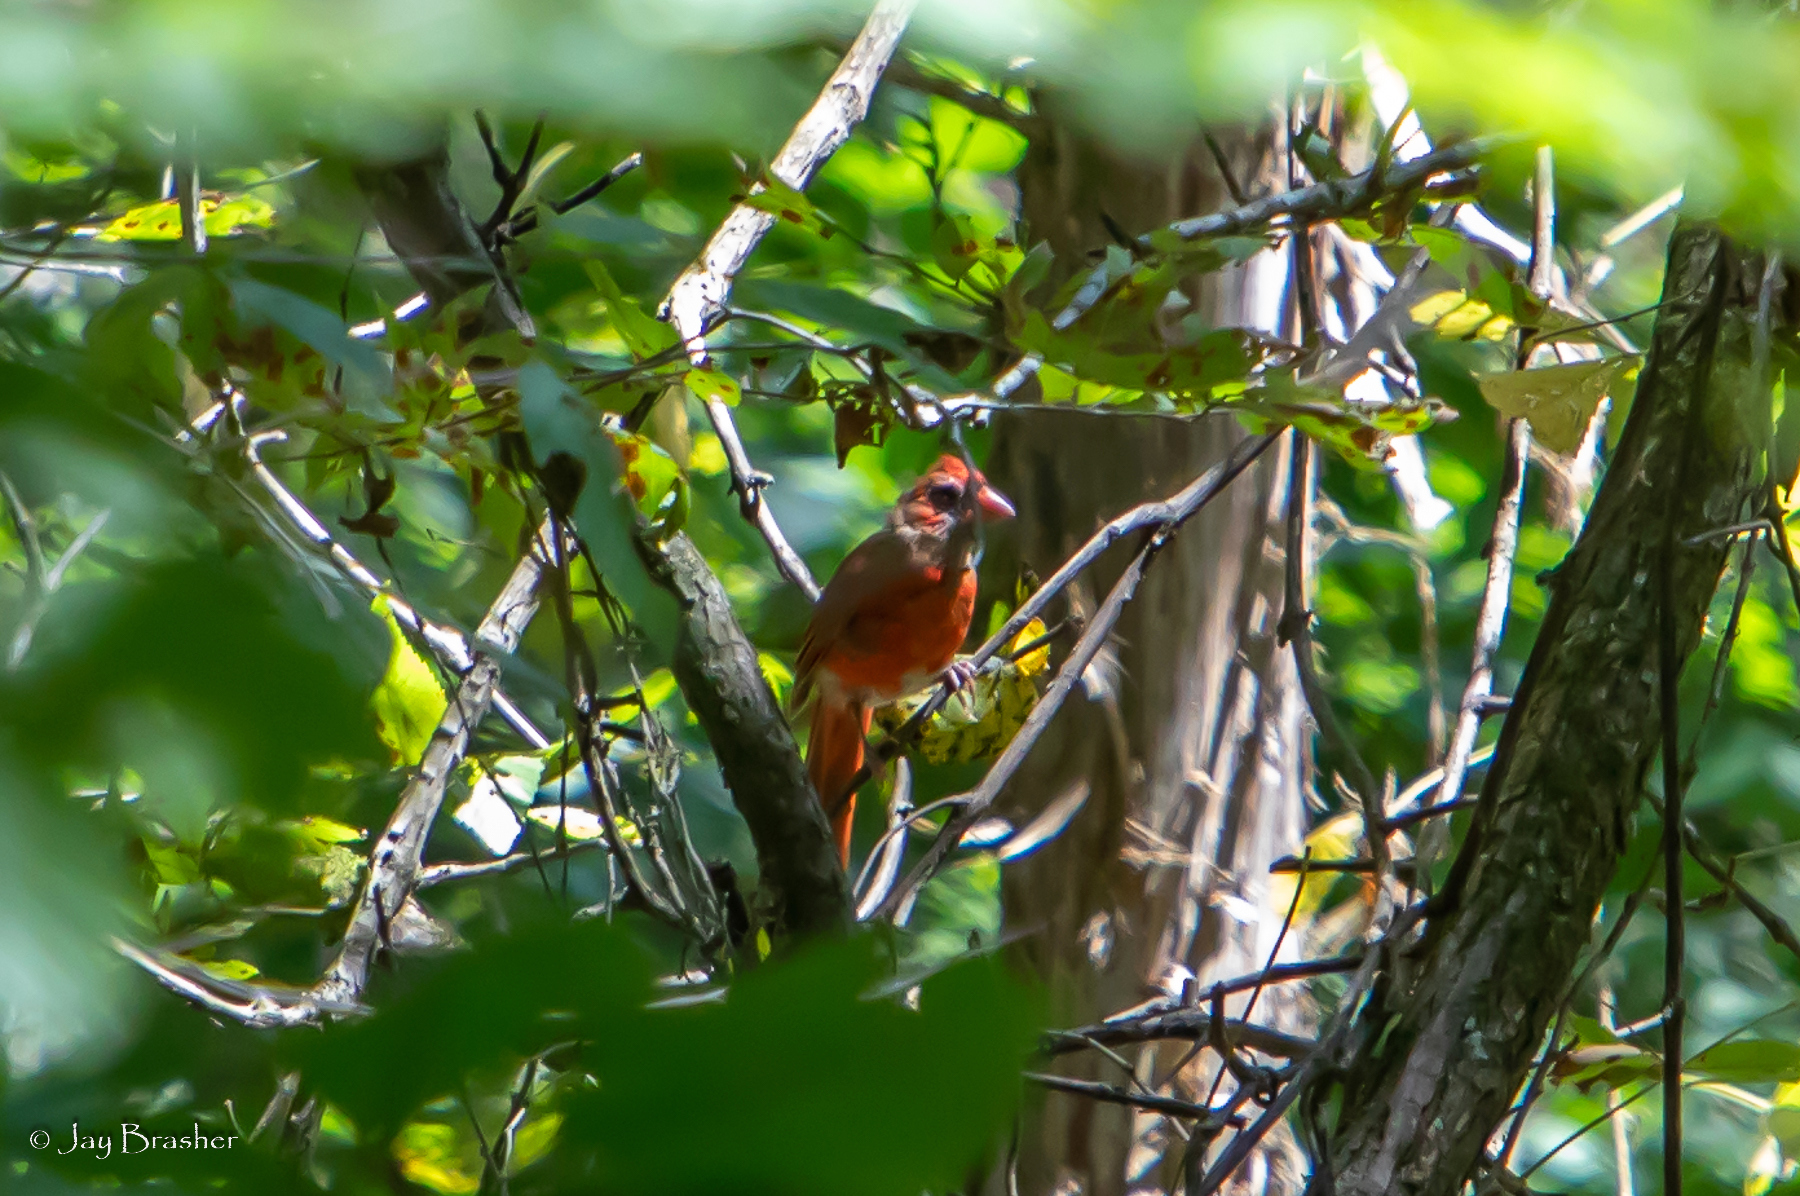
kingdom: Animalia
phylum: Chordata
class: Aves
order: Passeriformes
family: Cardinalidae
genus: Cardinalis
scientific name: Cardinalis cardinalis
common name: Northern cardinal
